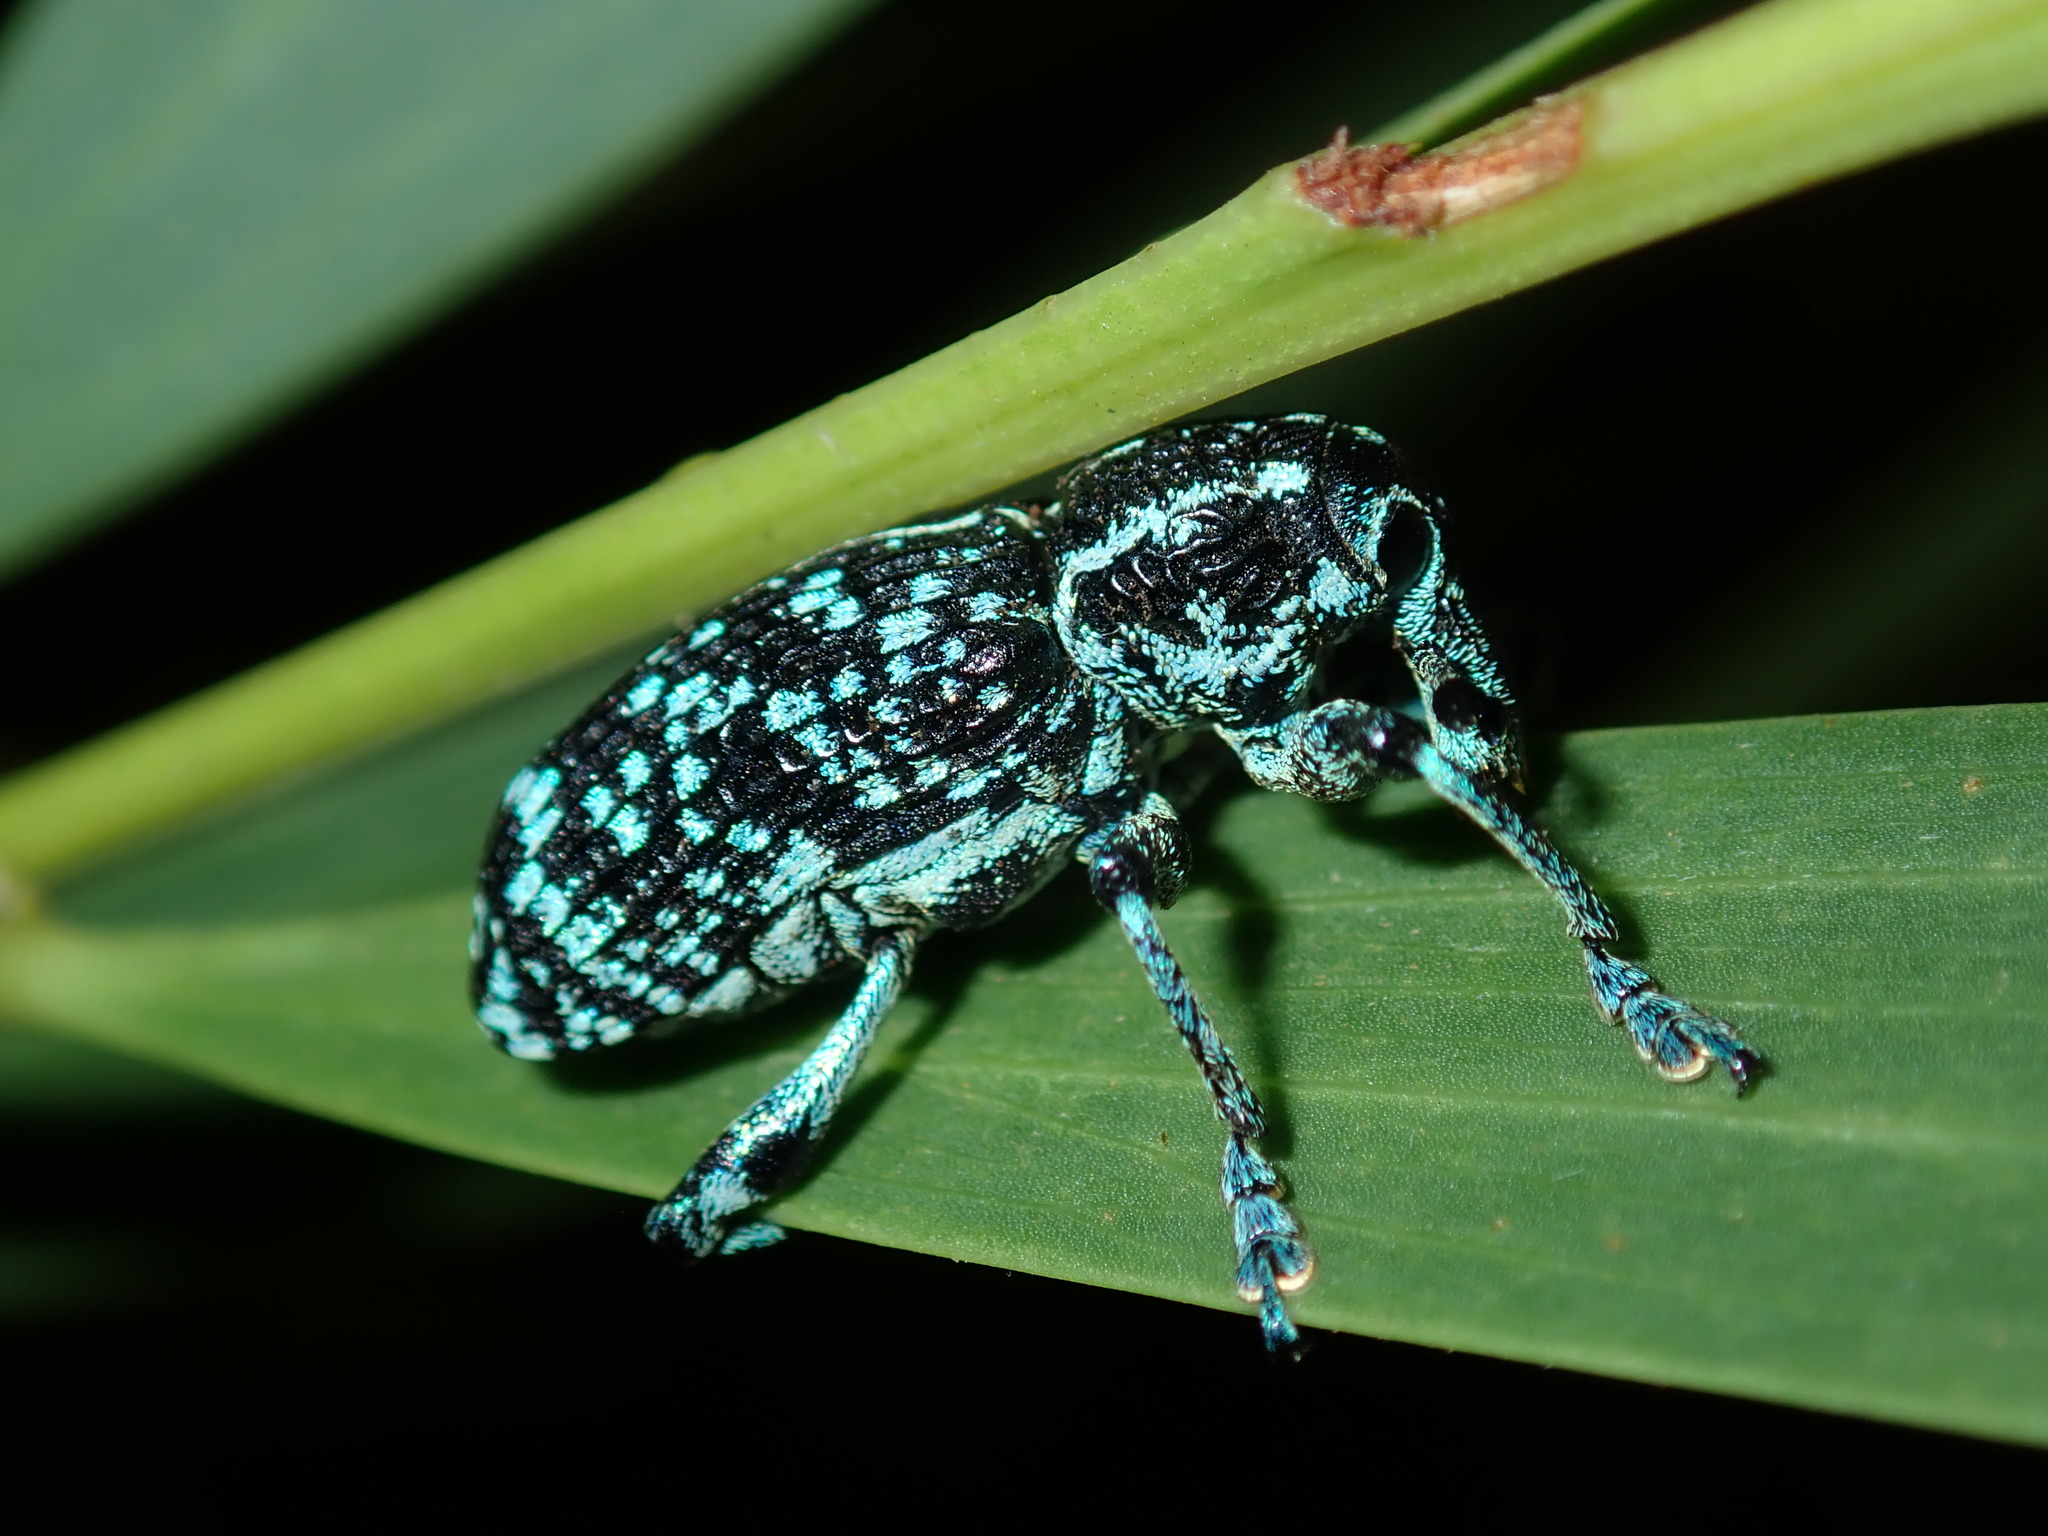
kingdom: Animalia
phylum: Arthropoda
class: Insecta
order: Coleoptera
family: Curculionidae
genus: Chrysolopus
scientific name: Chrysolopus spectabilis
